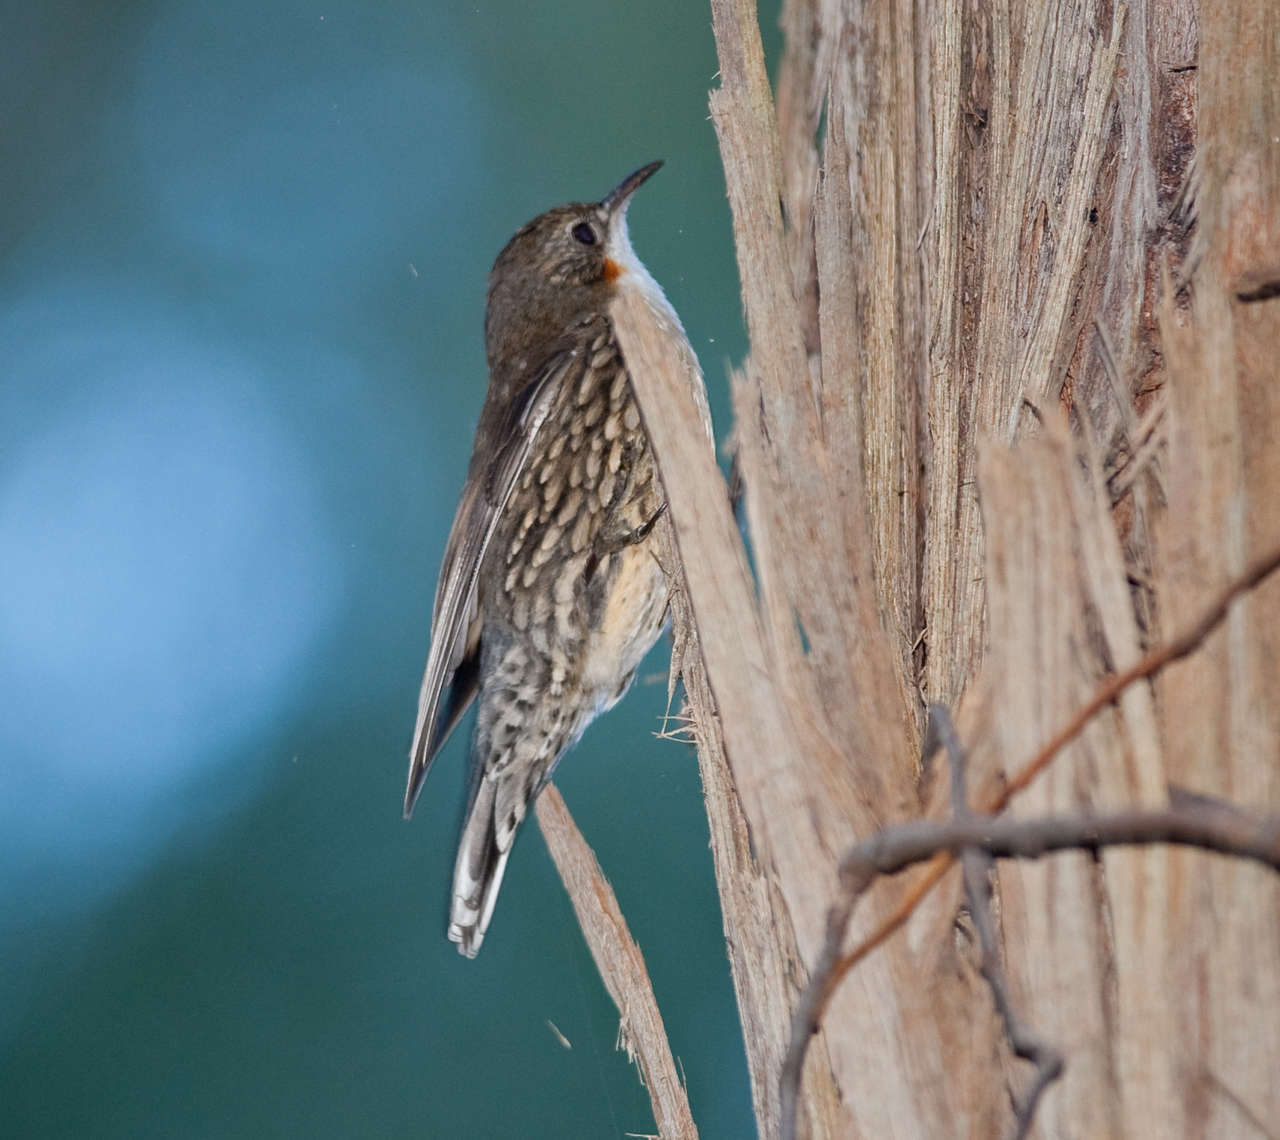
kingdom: Animalia
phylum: Chordata
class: Aves
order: Passeriformes
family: Climacteridae
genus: Cormobates
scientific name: Cormobates leucophaea
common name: White-throated treecreeper
